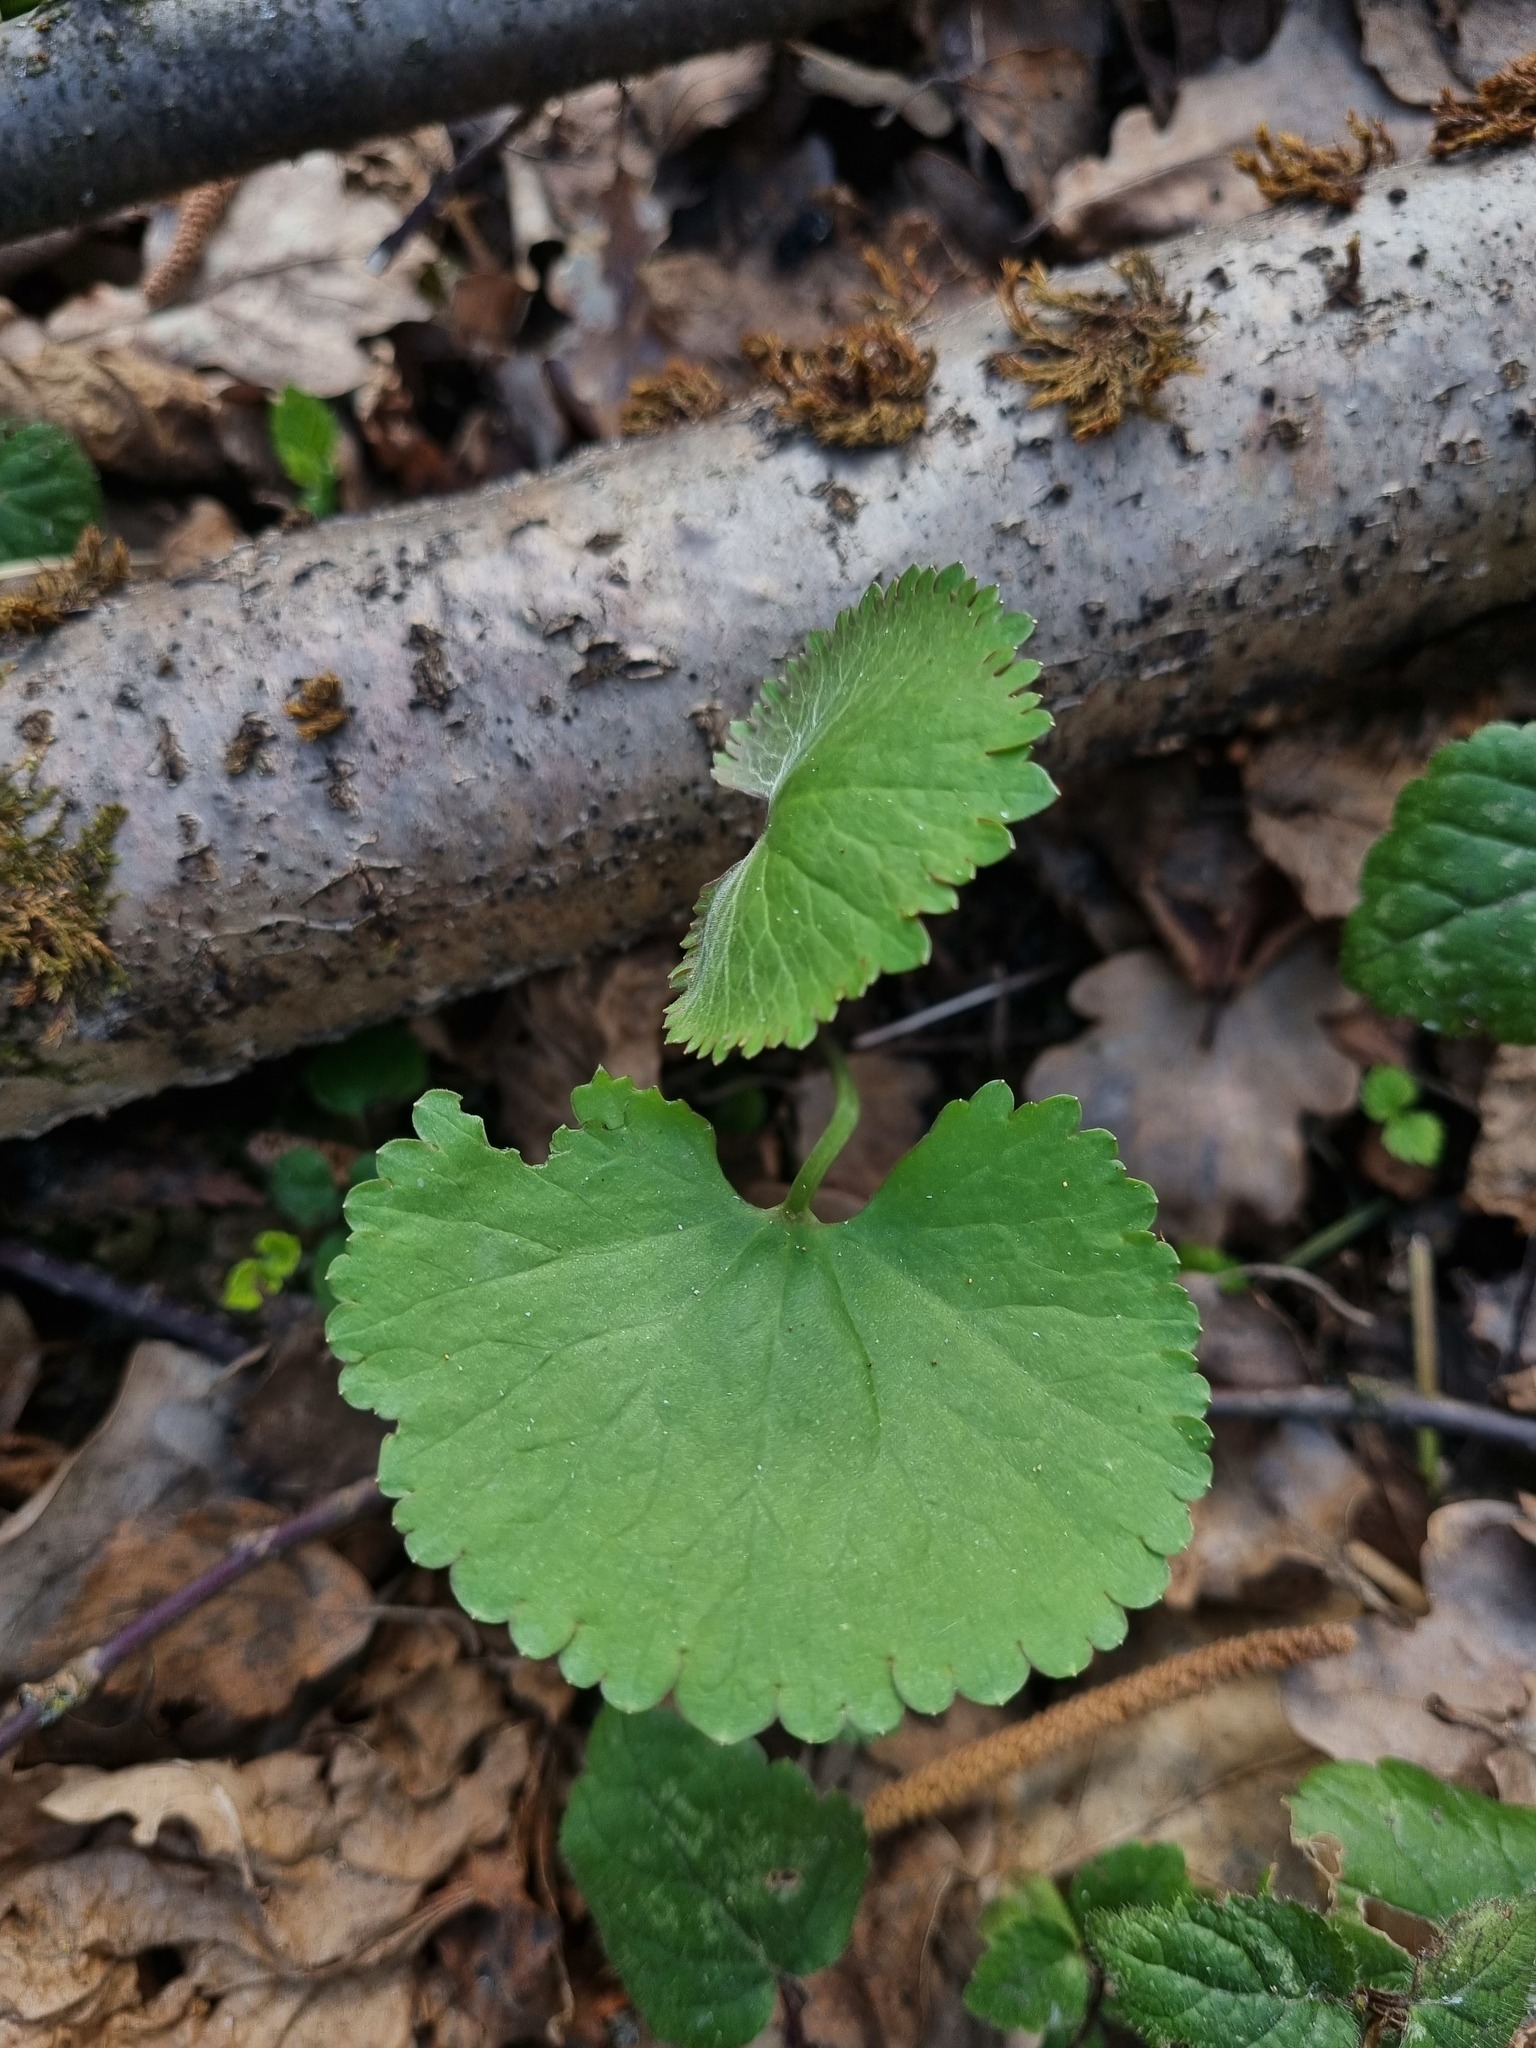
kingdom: Plantae
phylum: Tracheophyta
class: Magnoliopsida
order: Ranunculales
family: Ranunculaceae
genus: Ranunculus
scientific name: Ranunculus cassubicus
